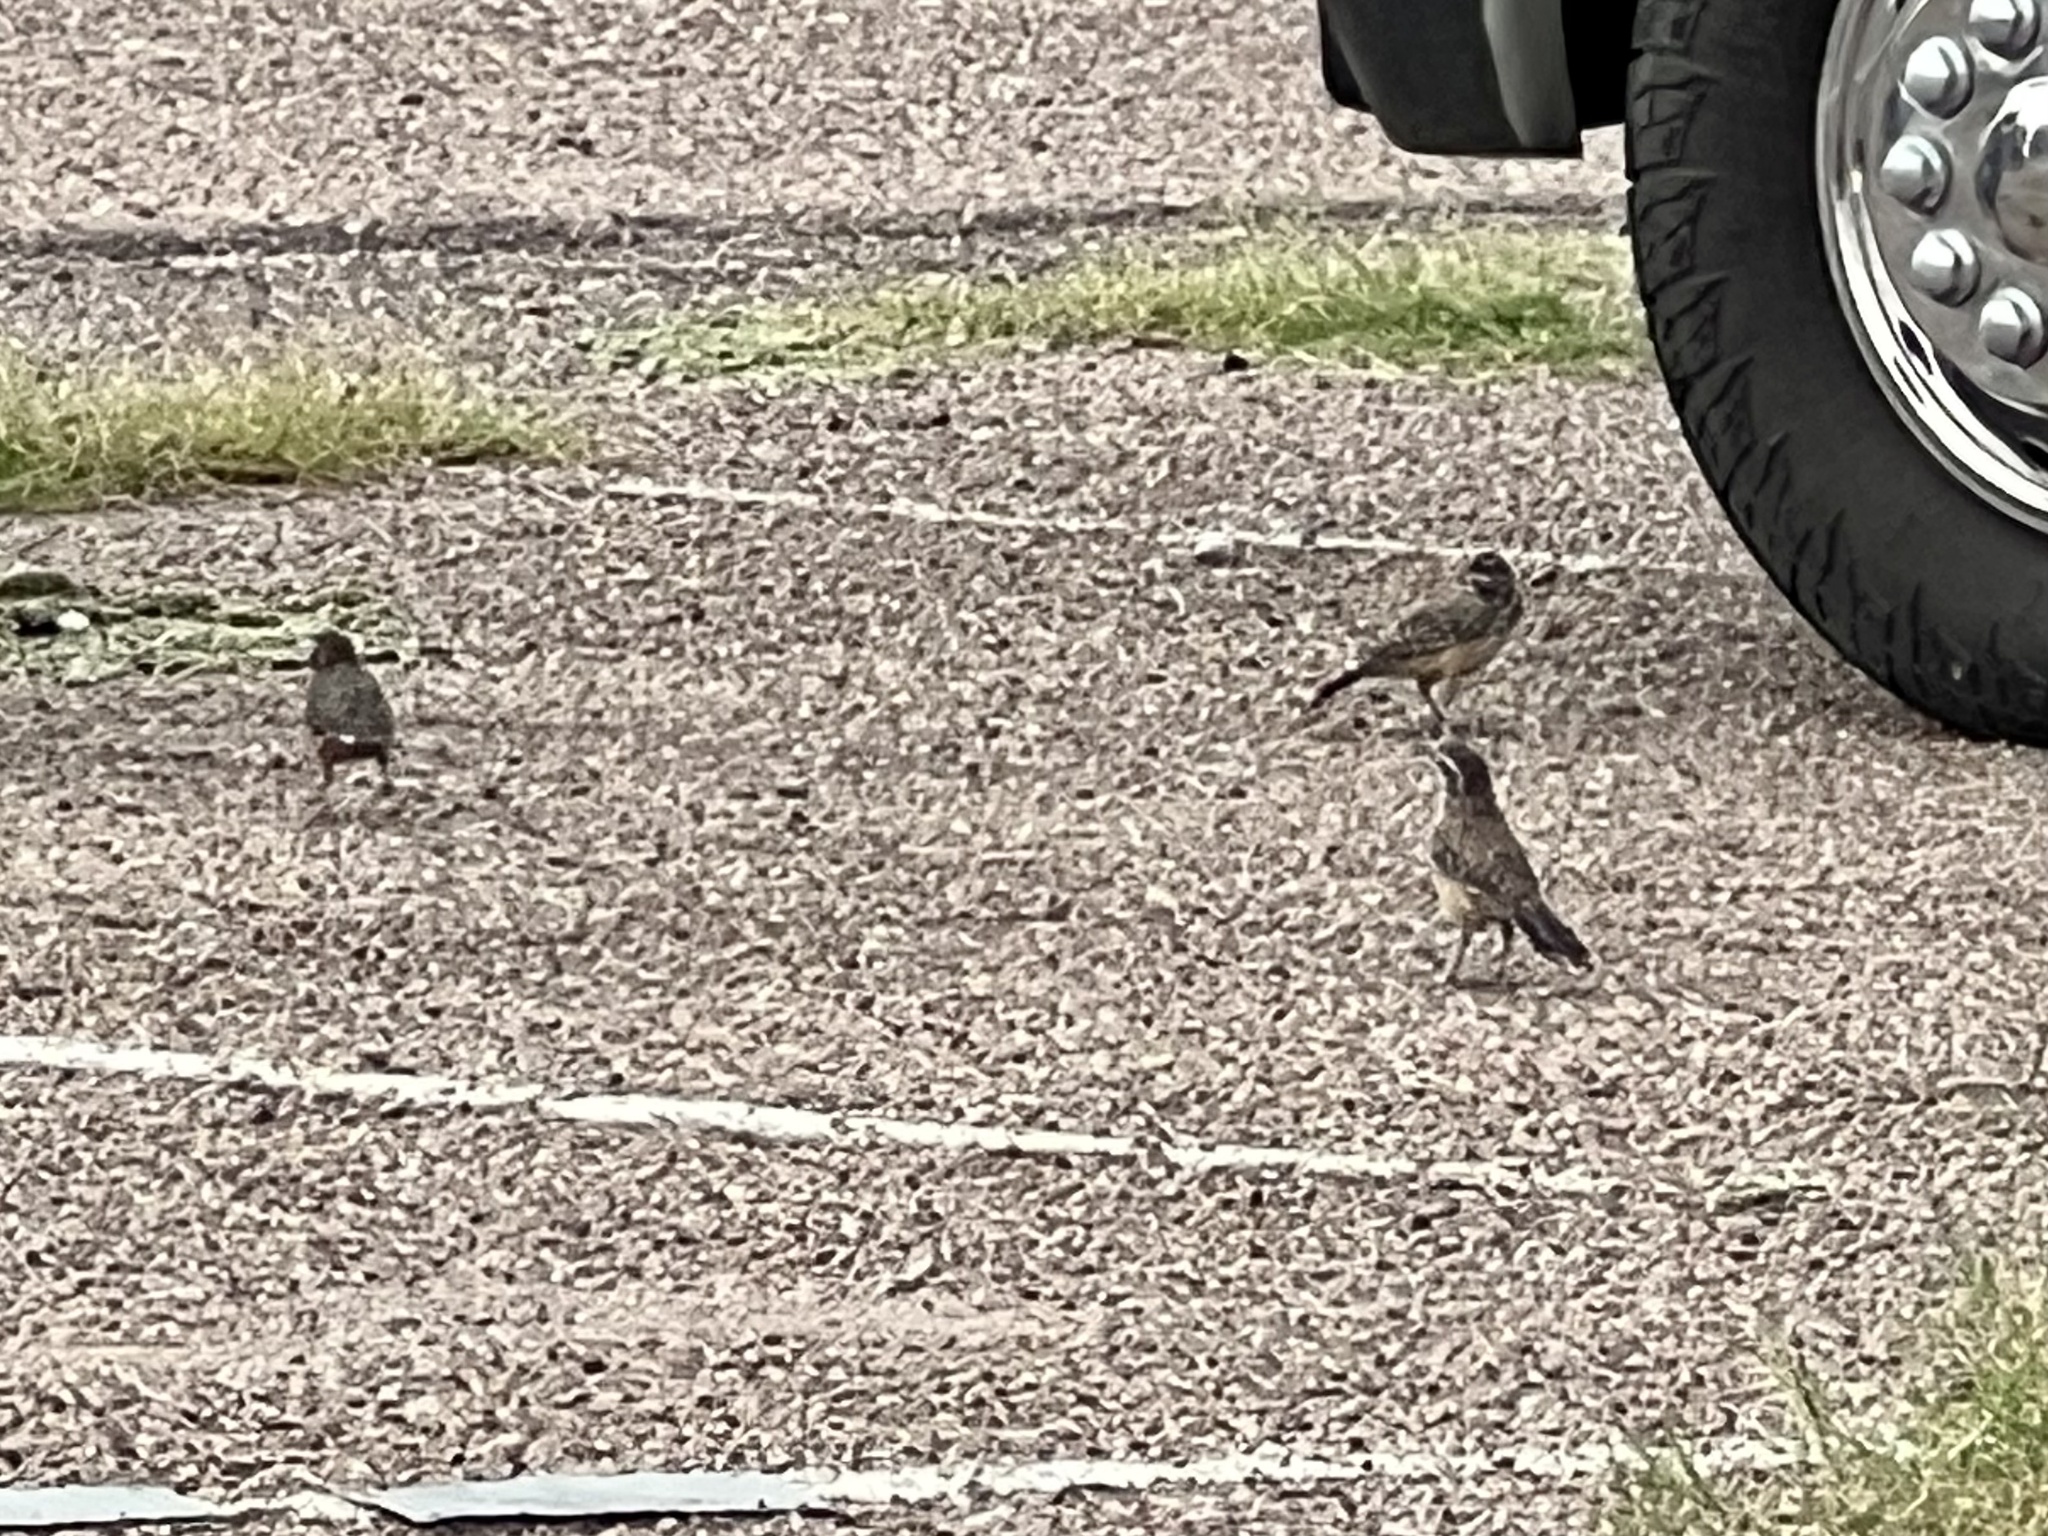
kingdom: Animalia
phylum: Chordata
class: Aves
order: Passeriformes
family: Troglodytidae
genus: Campylorhynchus
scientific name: Campylorhynchus brunneicapillus
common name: Cactus wren
